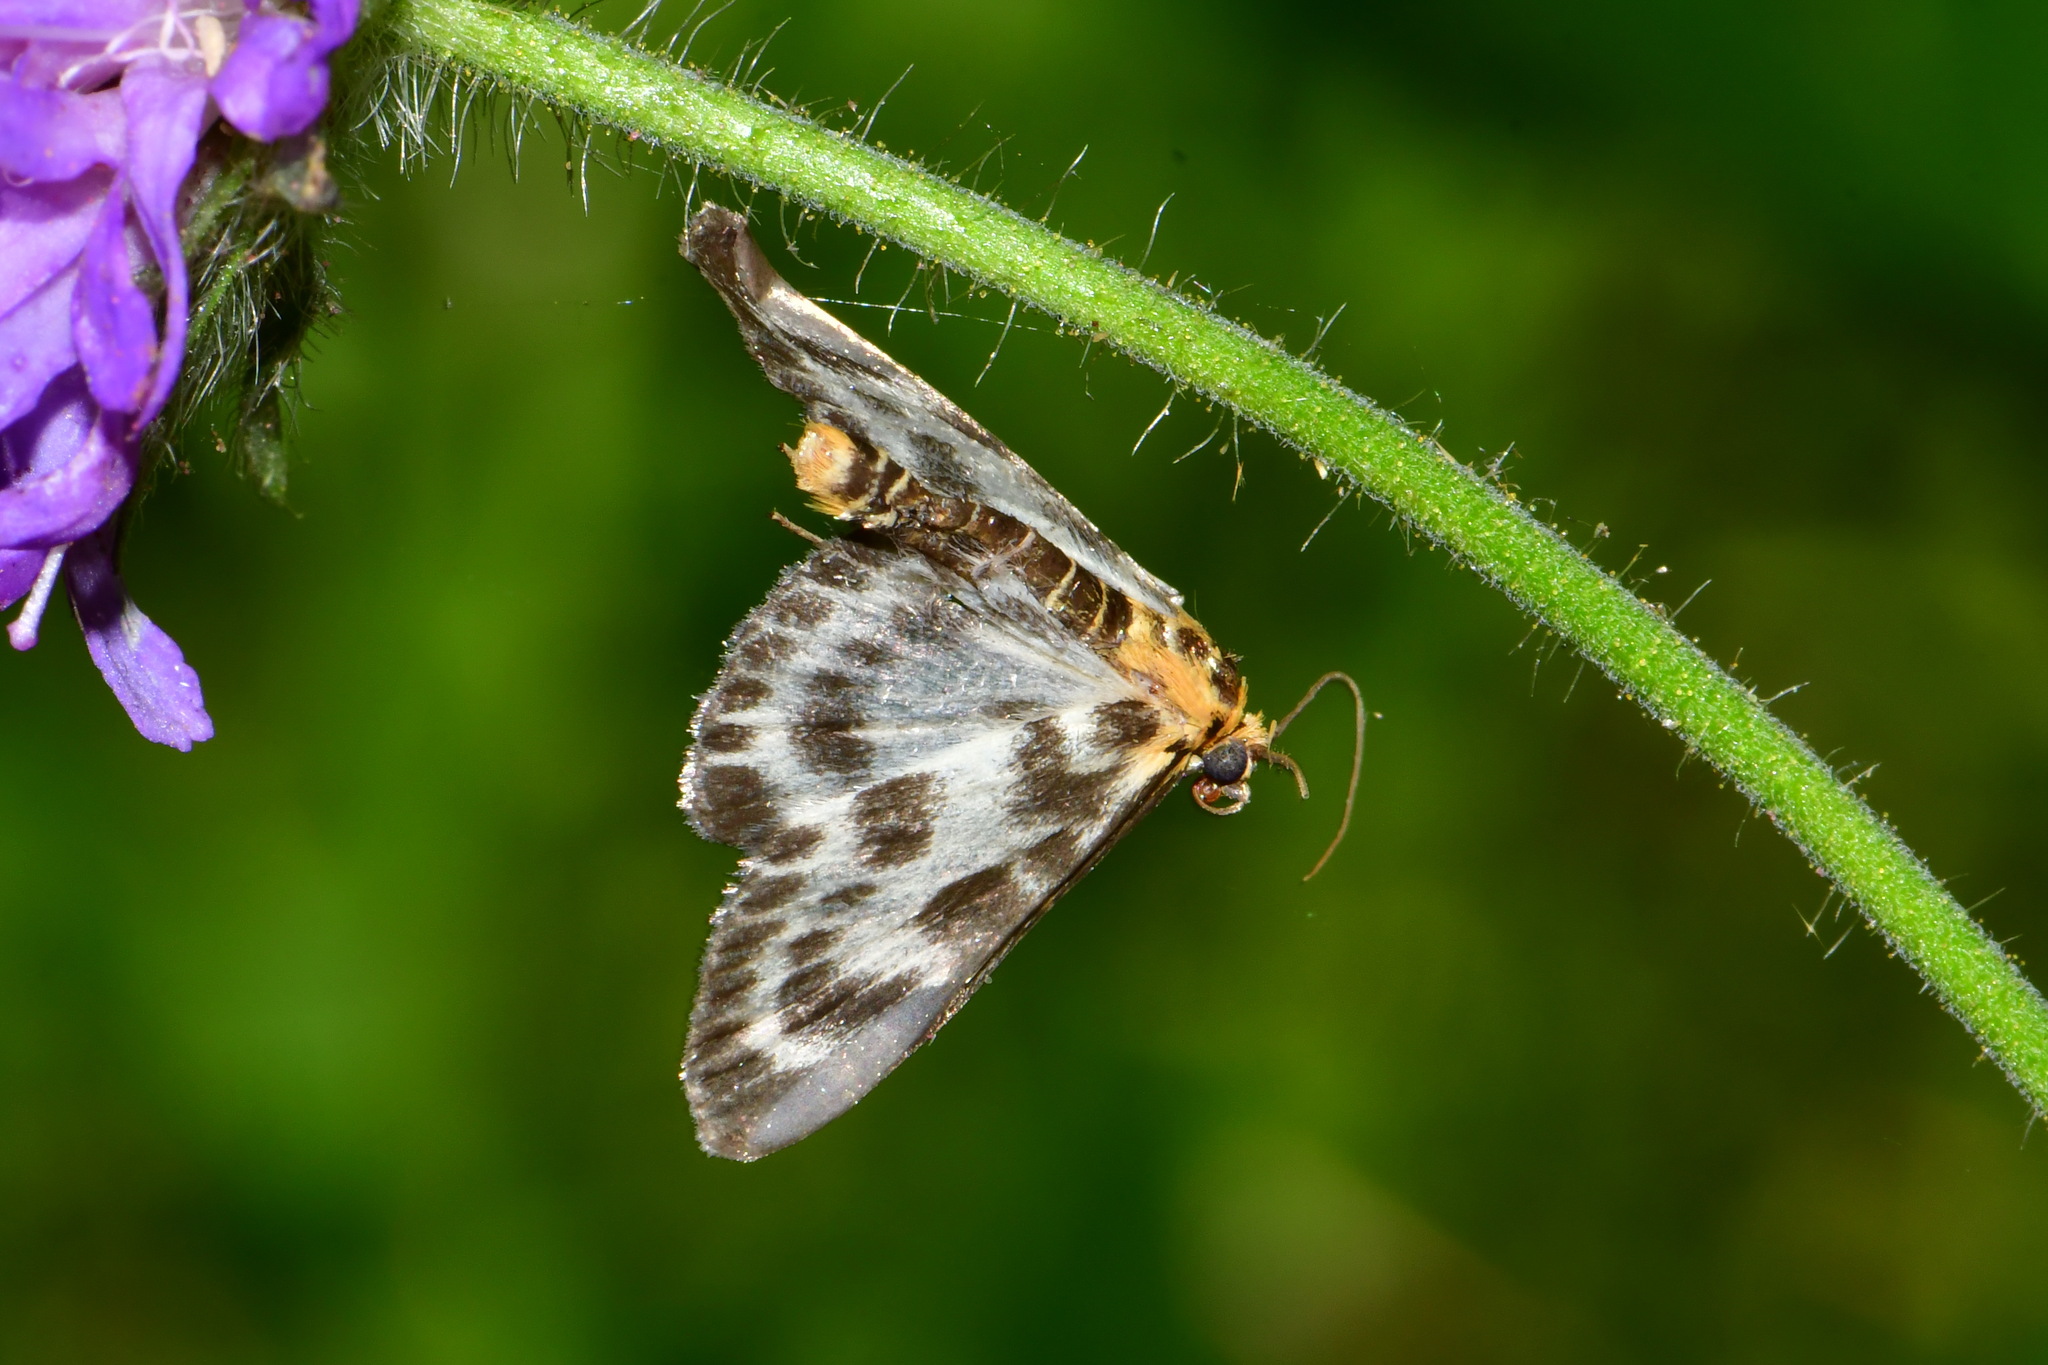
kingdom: Animalia
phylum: Arthropoda
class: Insecta
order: Lepidoptera
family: Crambidae
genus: Anania
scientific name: Anania hortulata
